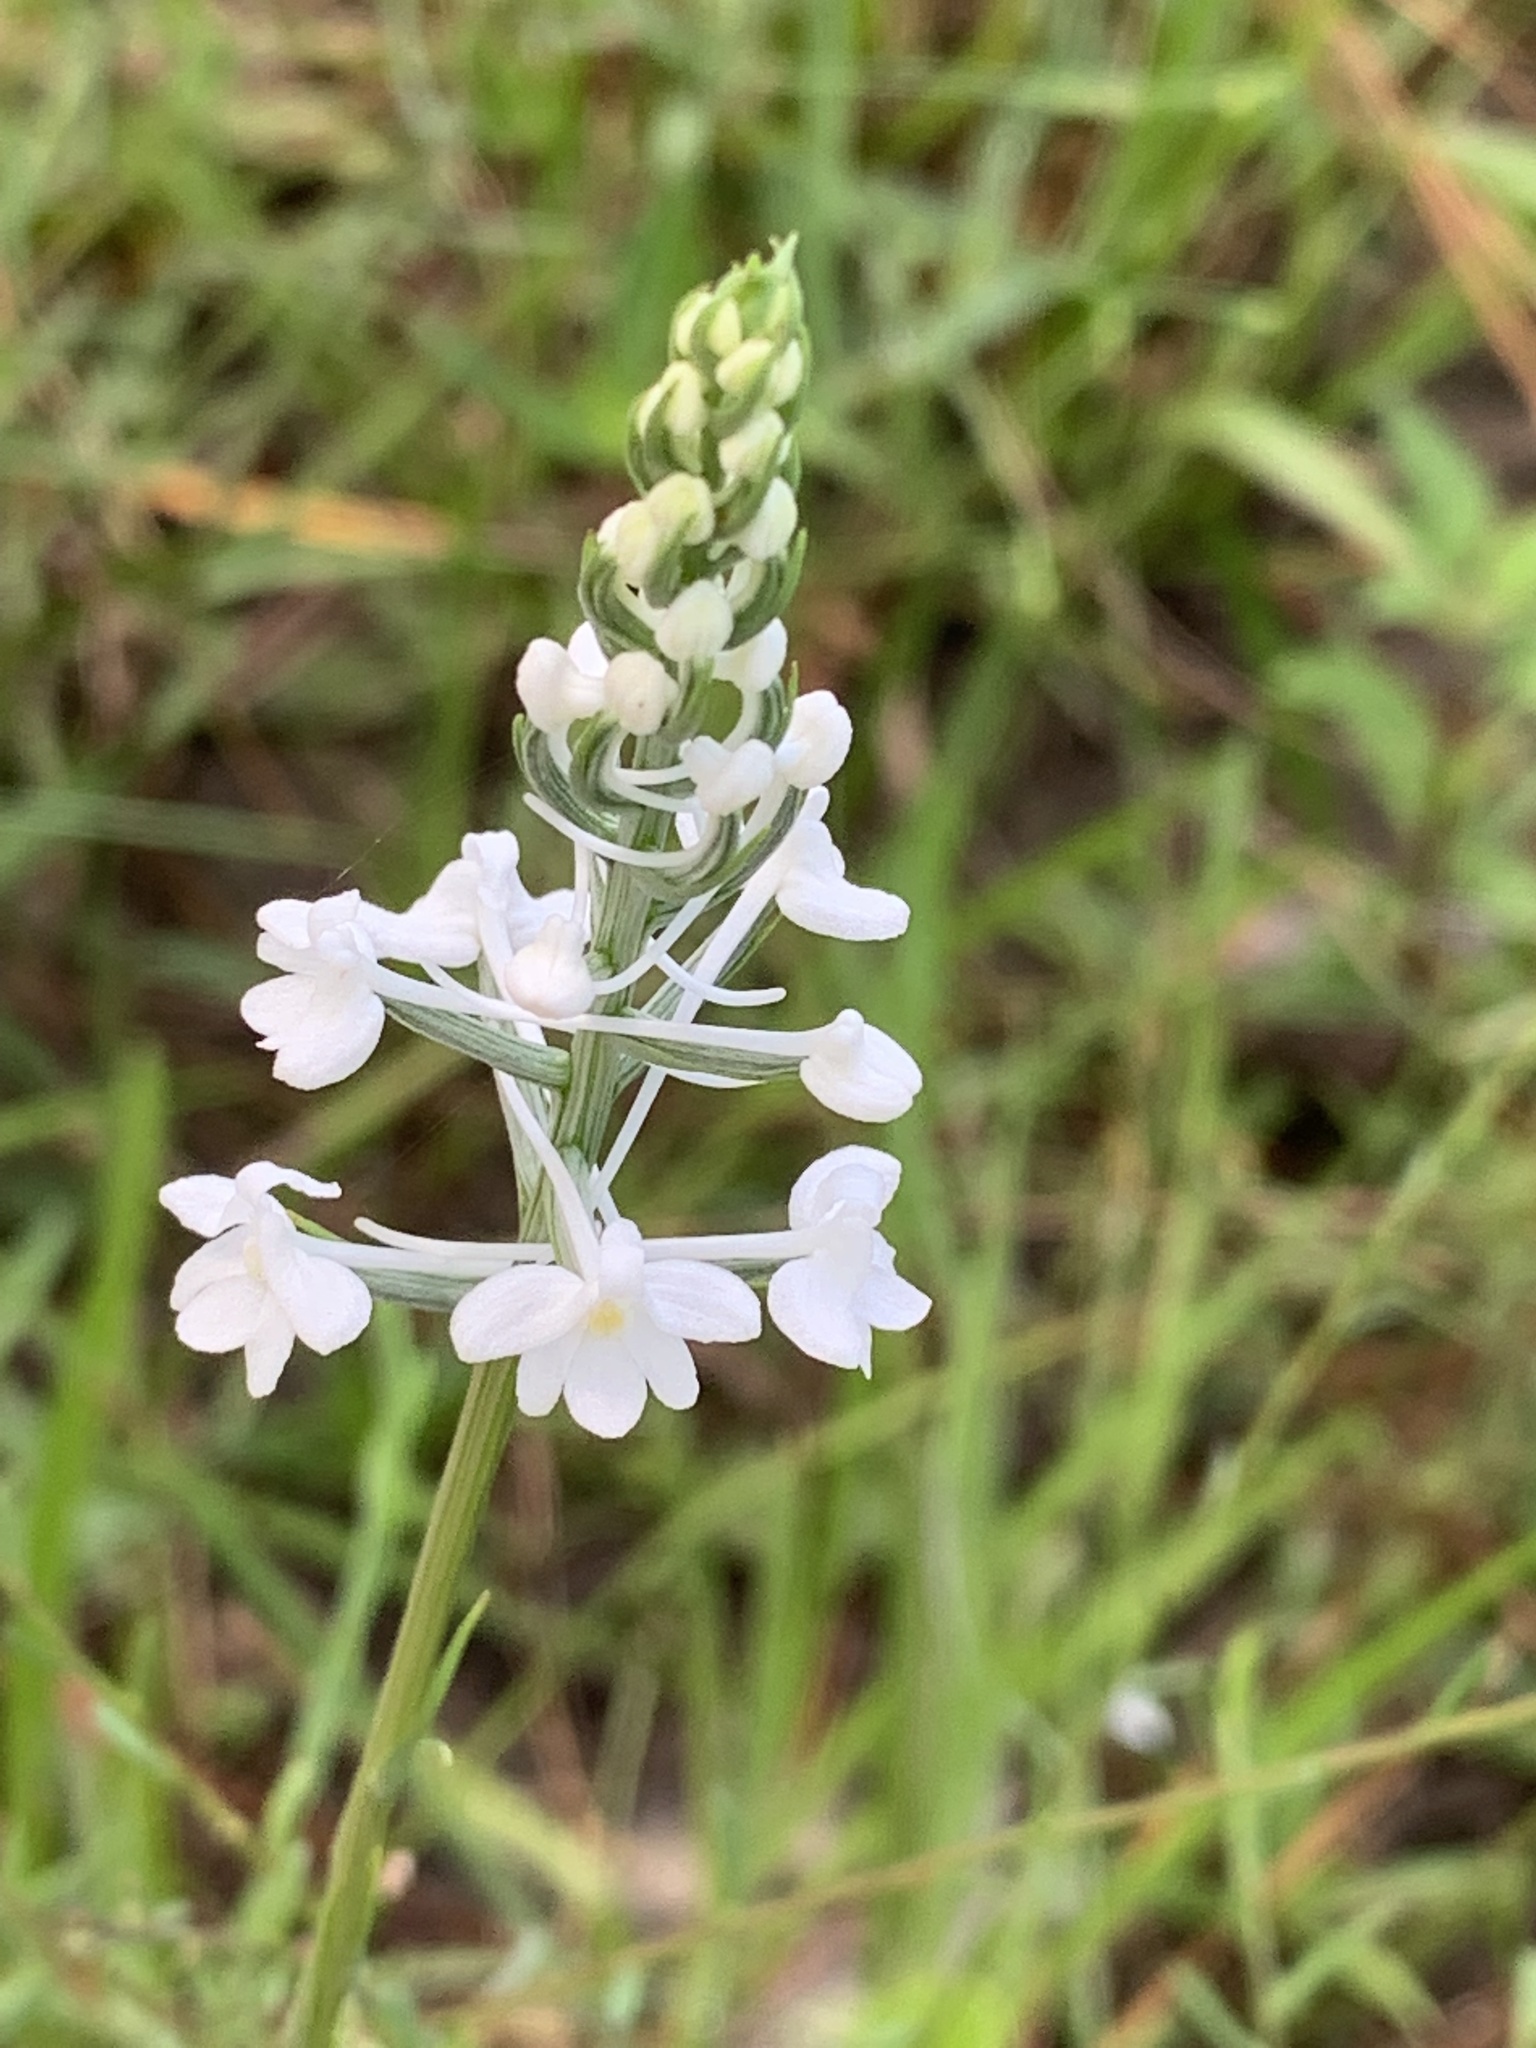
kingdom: Plantae
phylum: Tracheophyta
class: Liliopsida
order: Asparagales
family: Orchidaceae
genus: Platanthera
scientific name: Platanthera nivea
